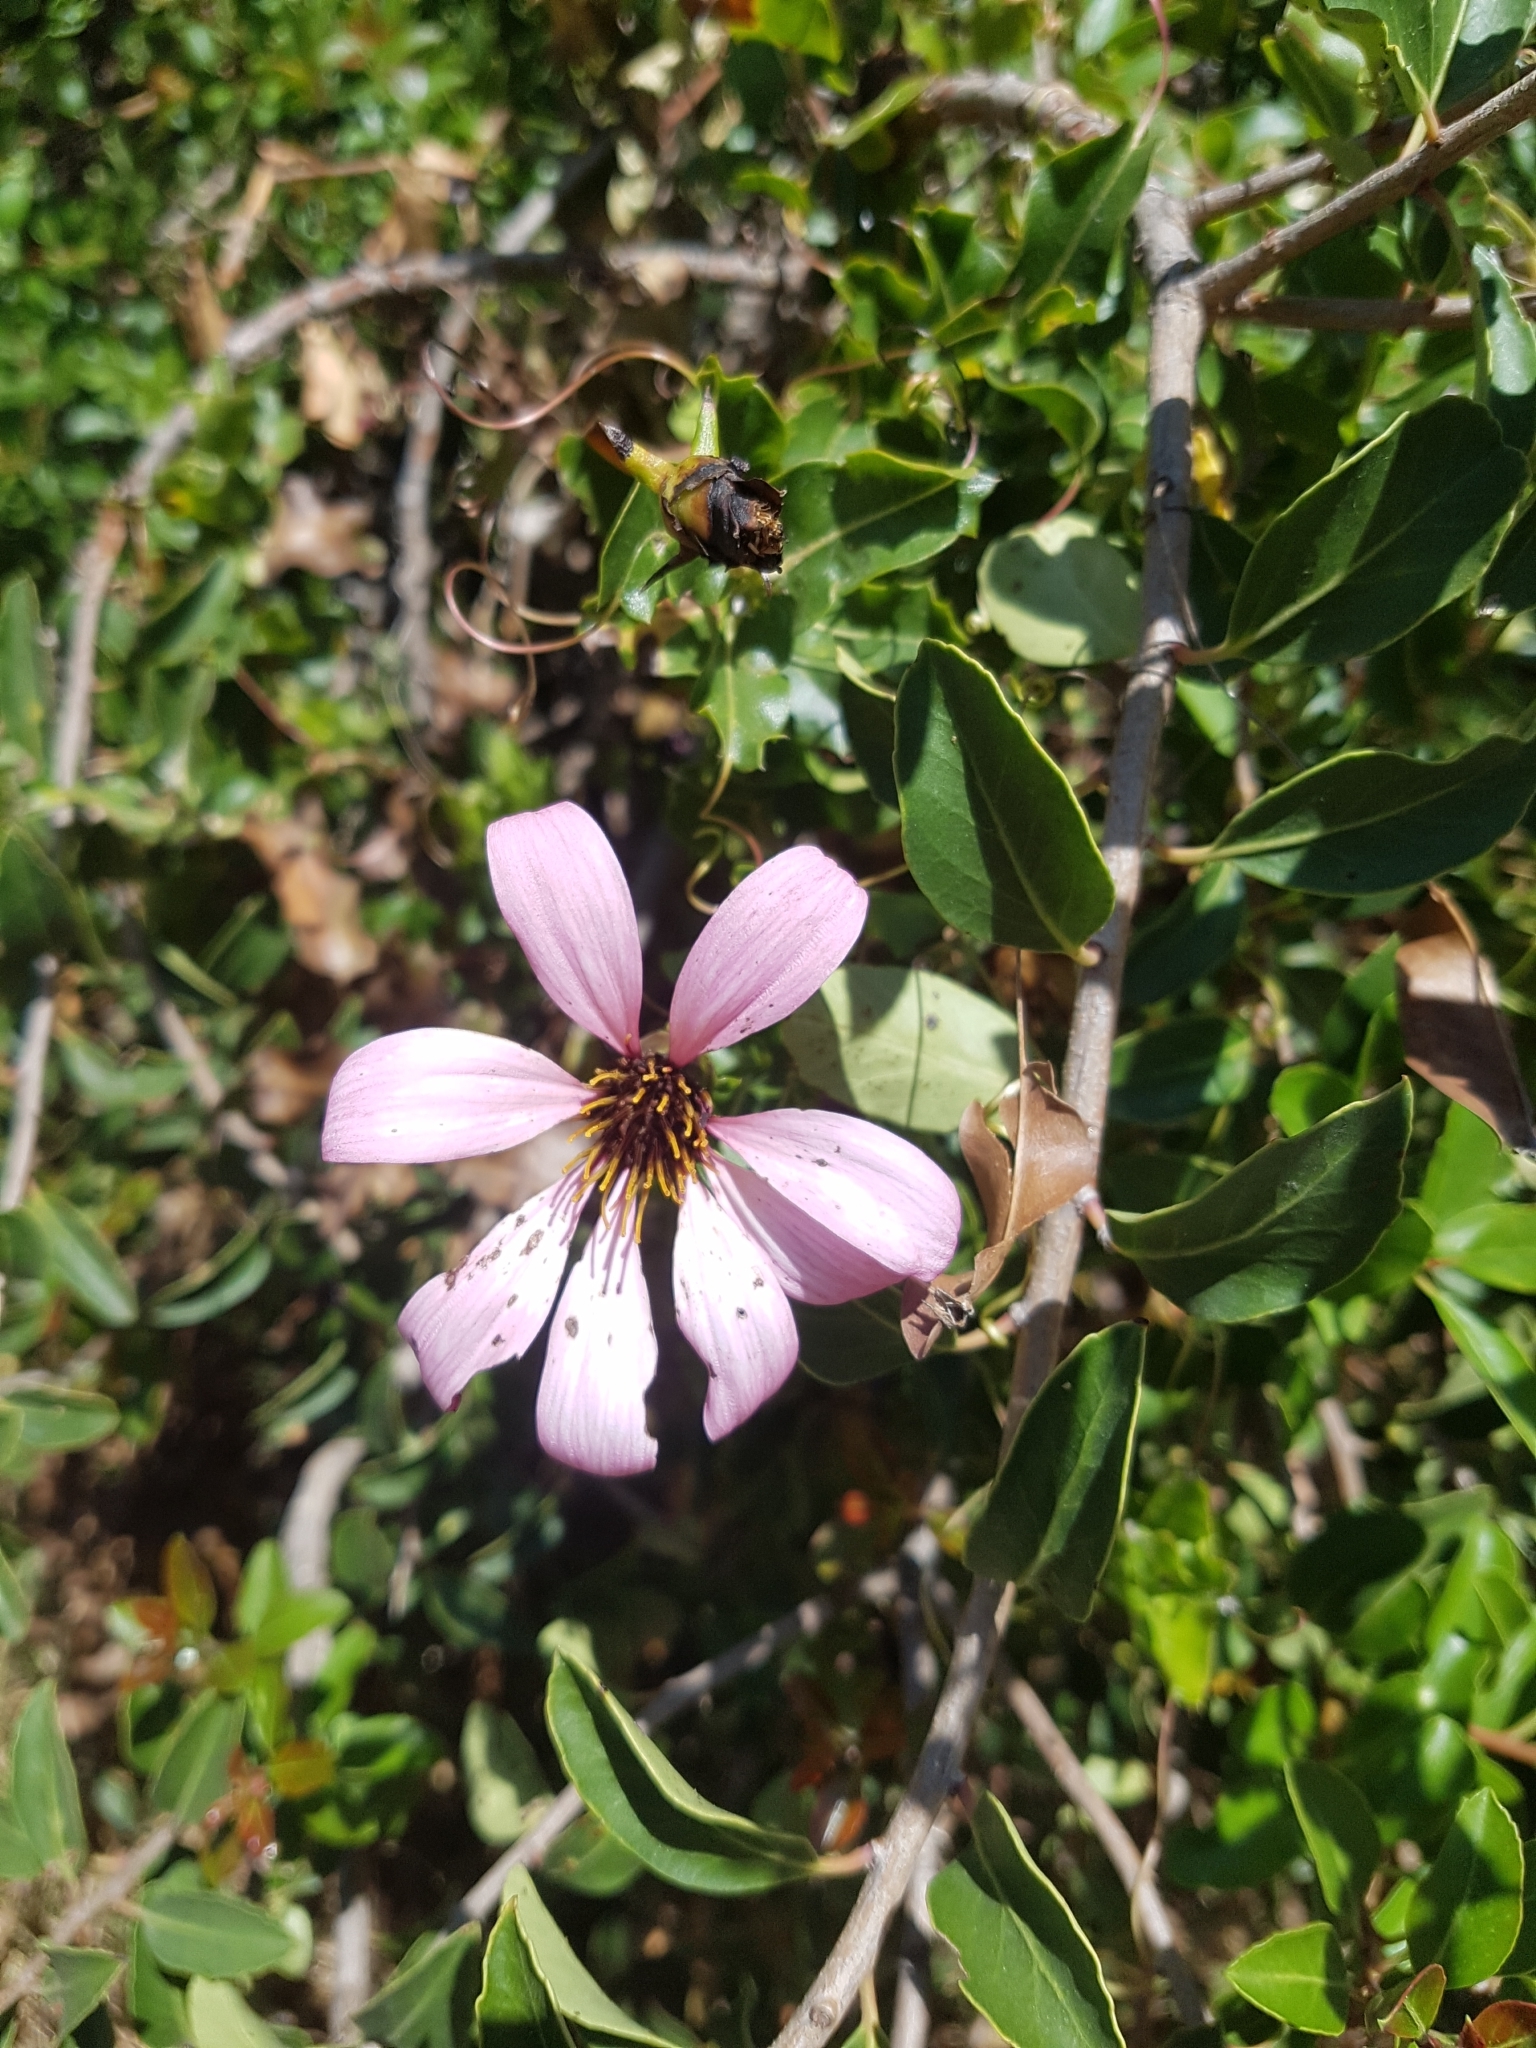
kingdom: Plantae
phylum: Tracheophyta
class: Magnoliopsida
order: Asterales
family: Asteraceae
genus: Mutisia
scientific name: Mutisia spinosa
